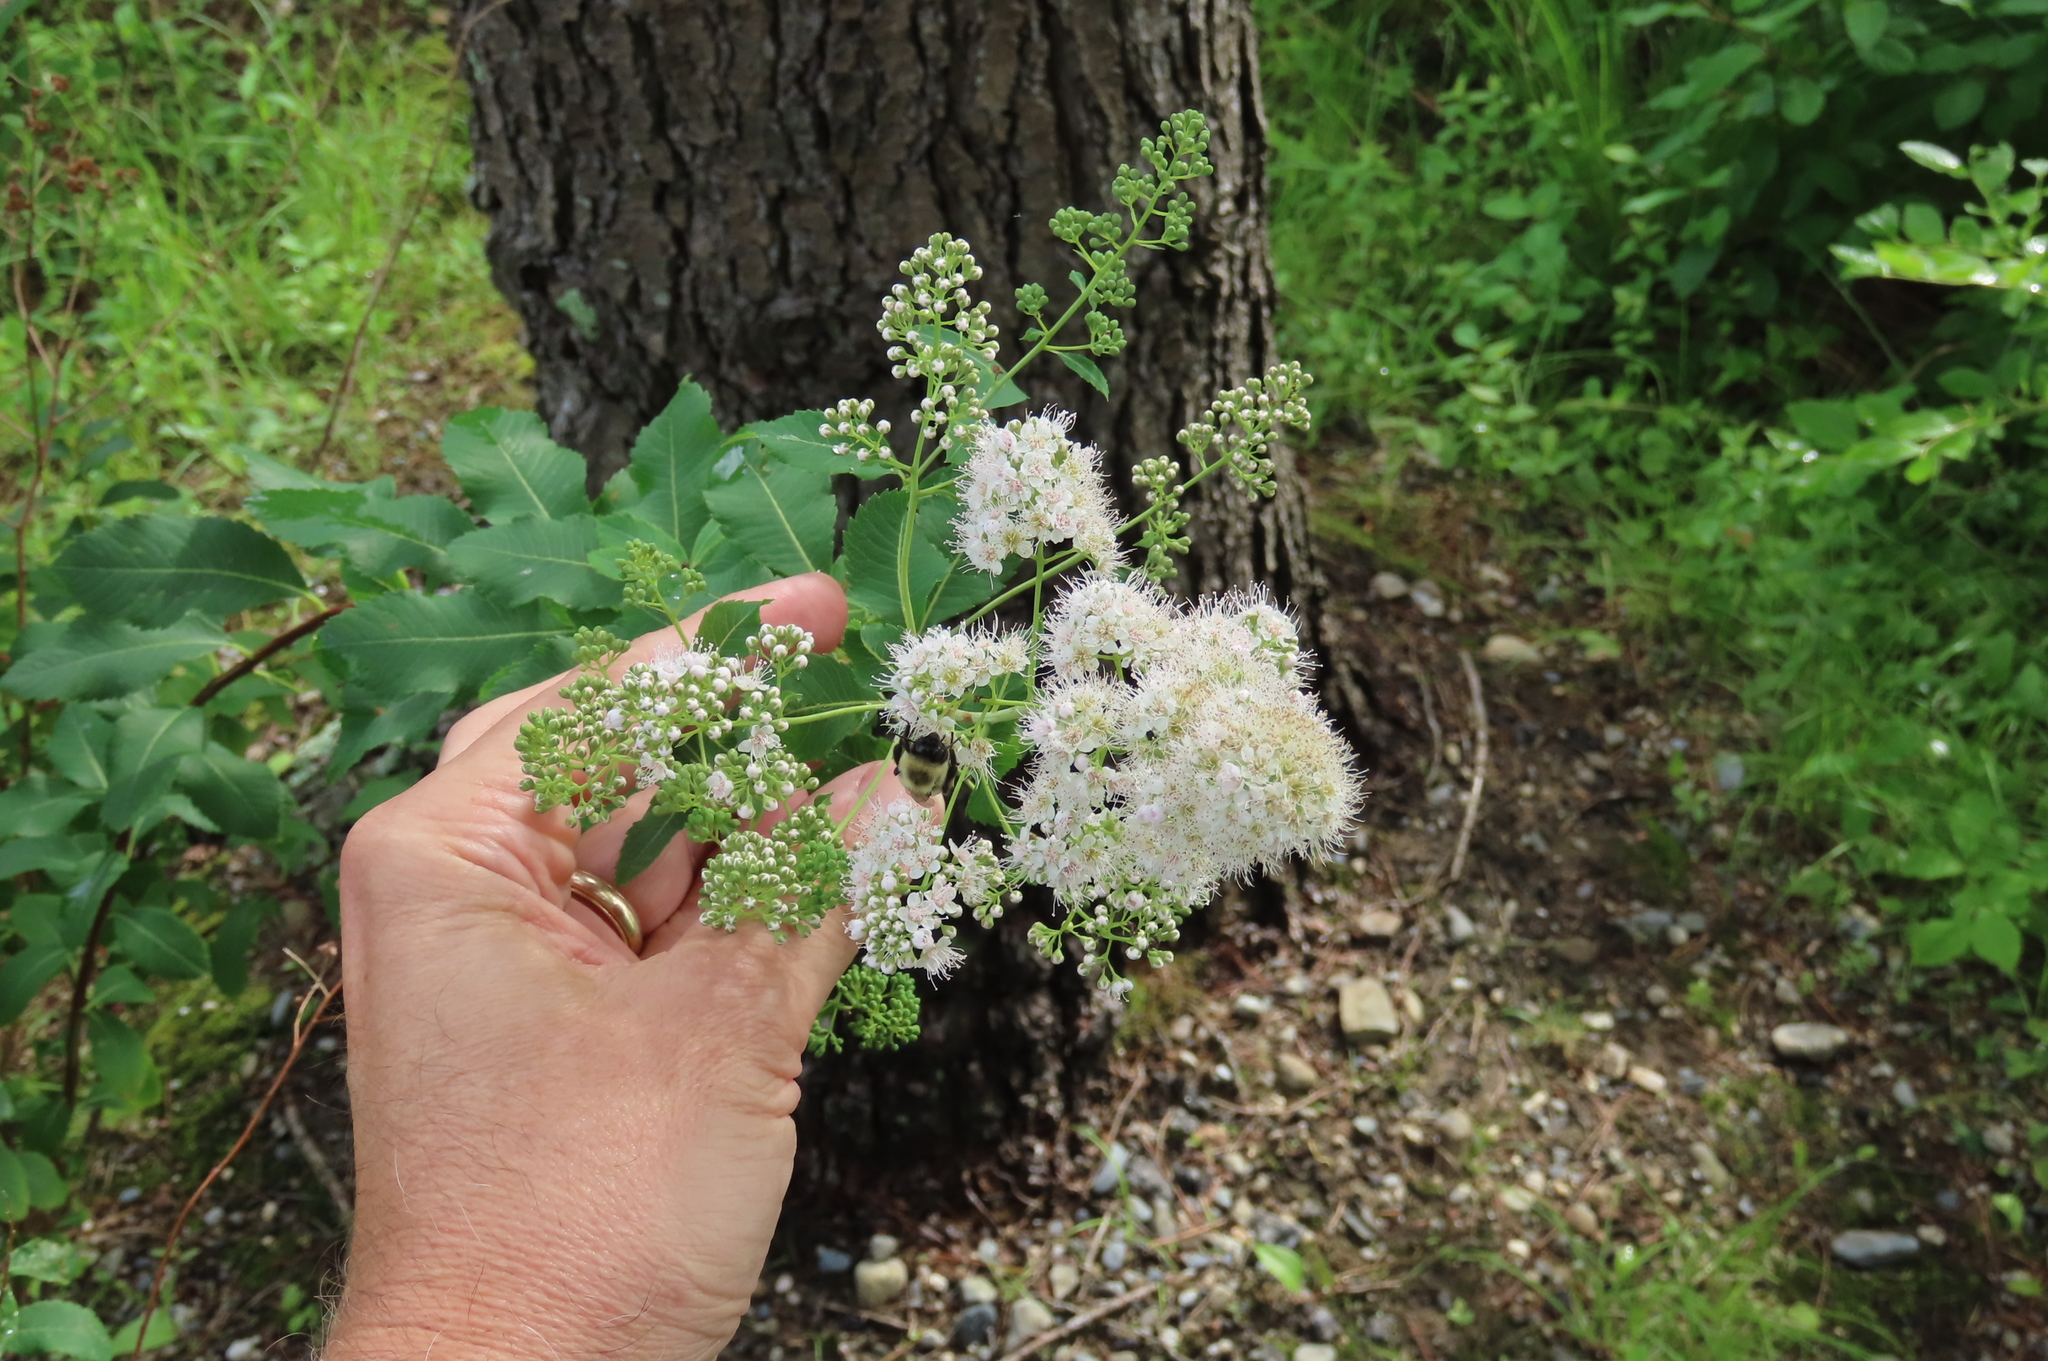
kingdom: Plantae
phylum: Tracheophyta
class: Magnoliopsida
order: Rosales
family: Rosaceae
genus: Spiraea
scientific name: Spiraea alba
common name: Pale bridewort
